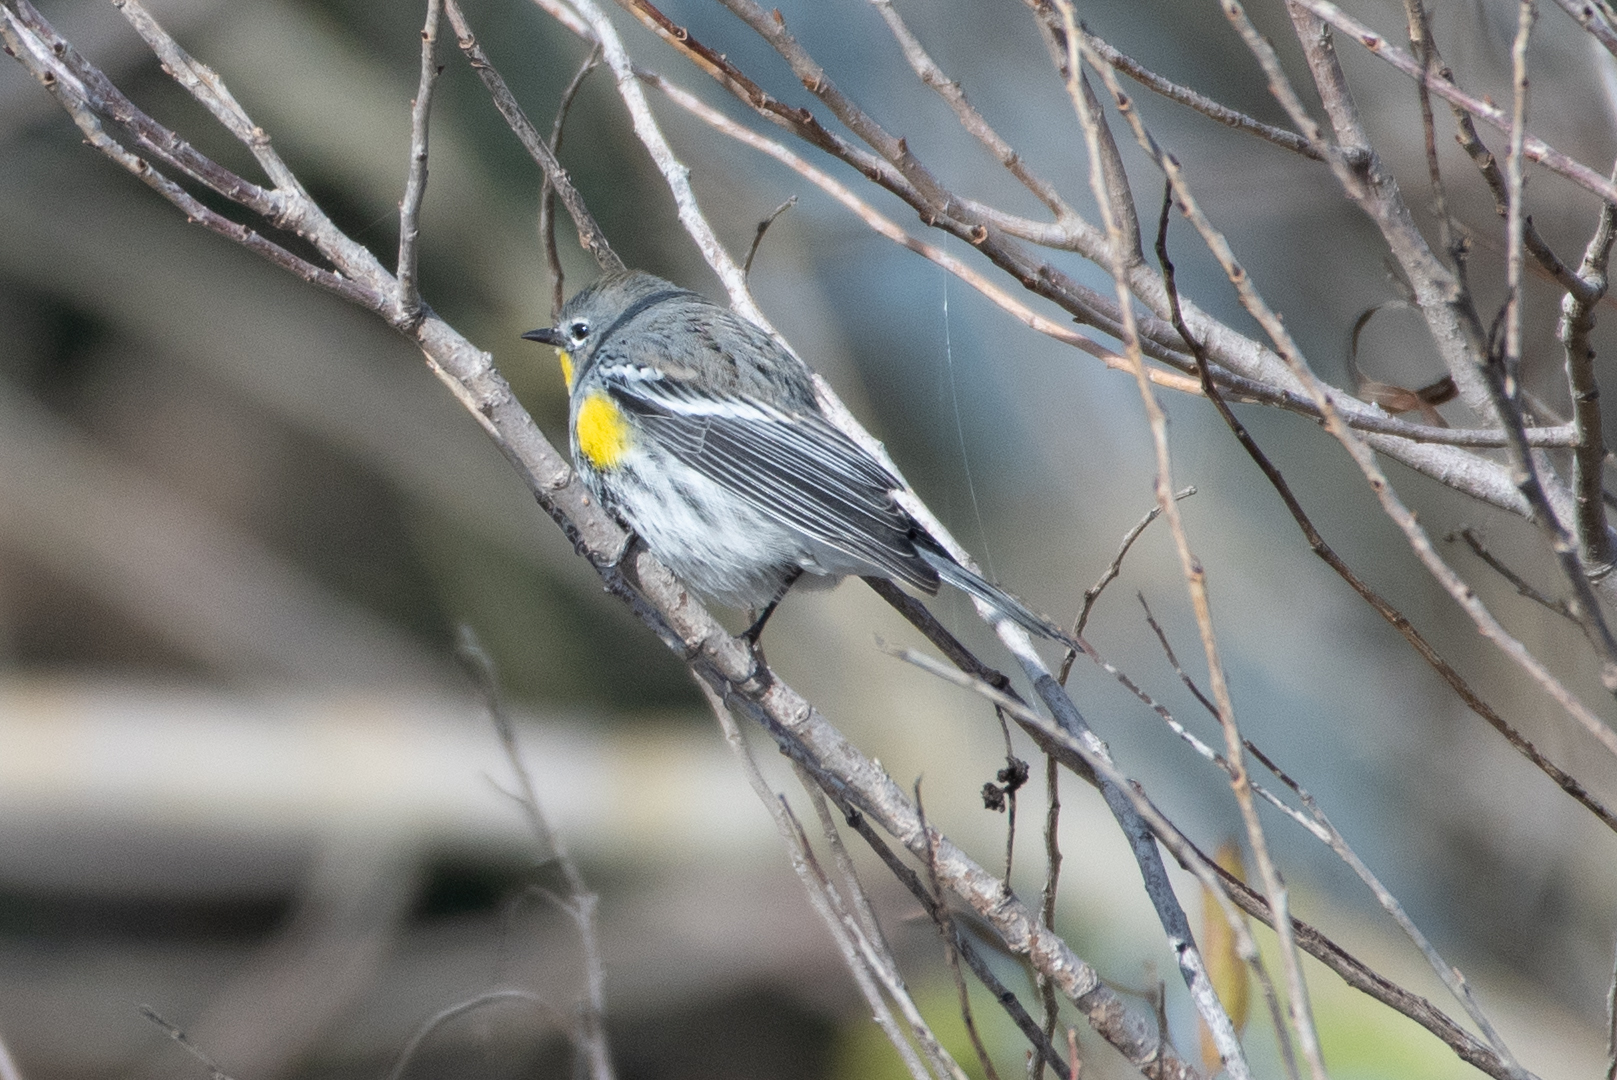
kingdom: Animalia
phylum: Chordata
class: Aves
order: Passeriformes
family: Parulidae
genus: Setophaga
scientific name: Setophaga coronata
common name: Myrtle warbler
